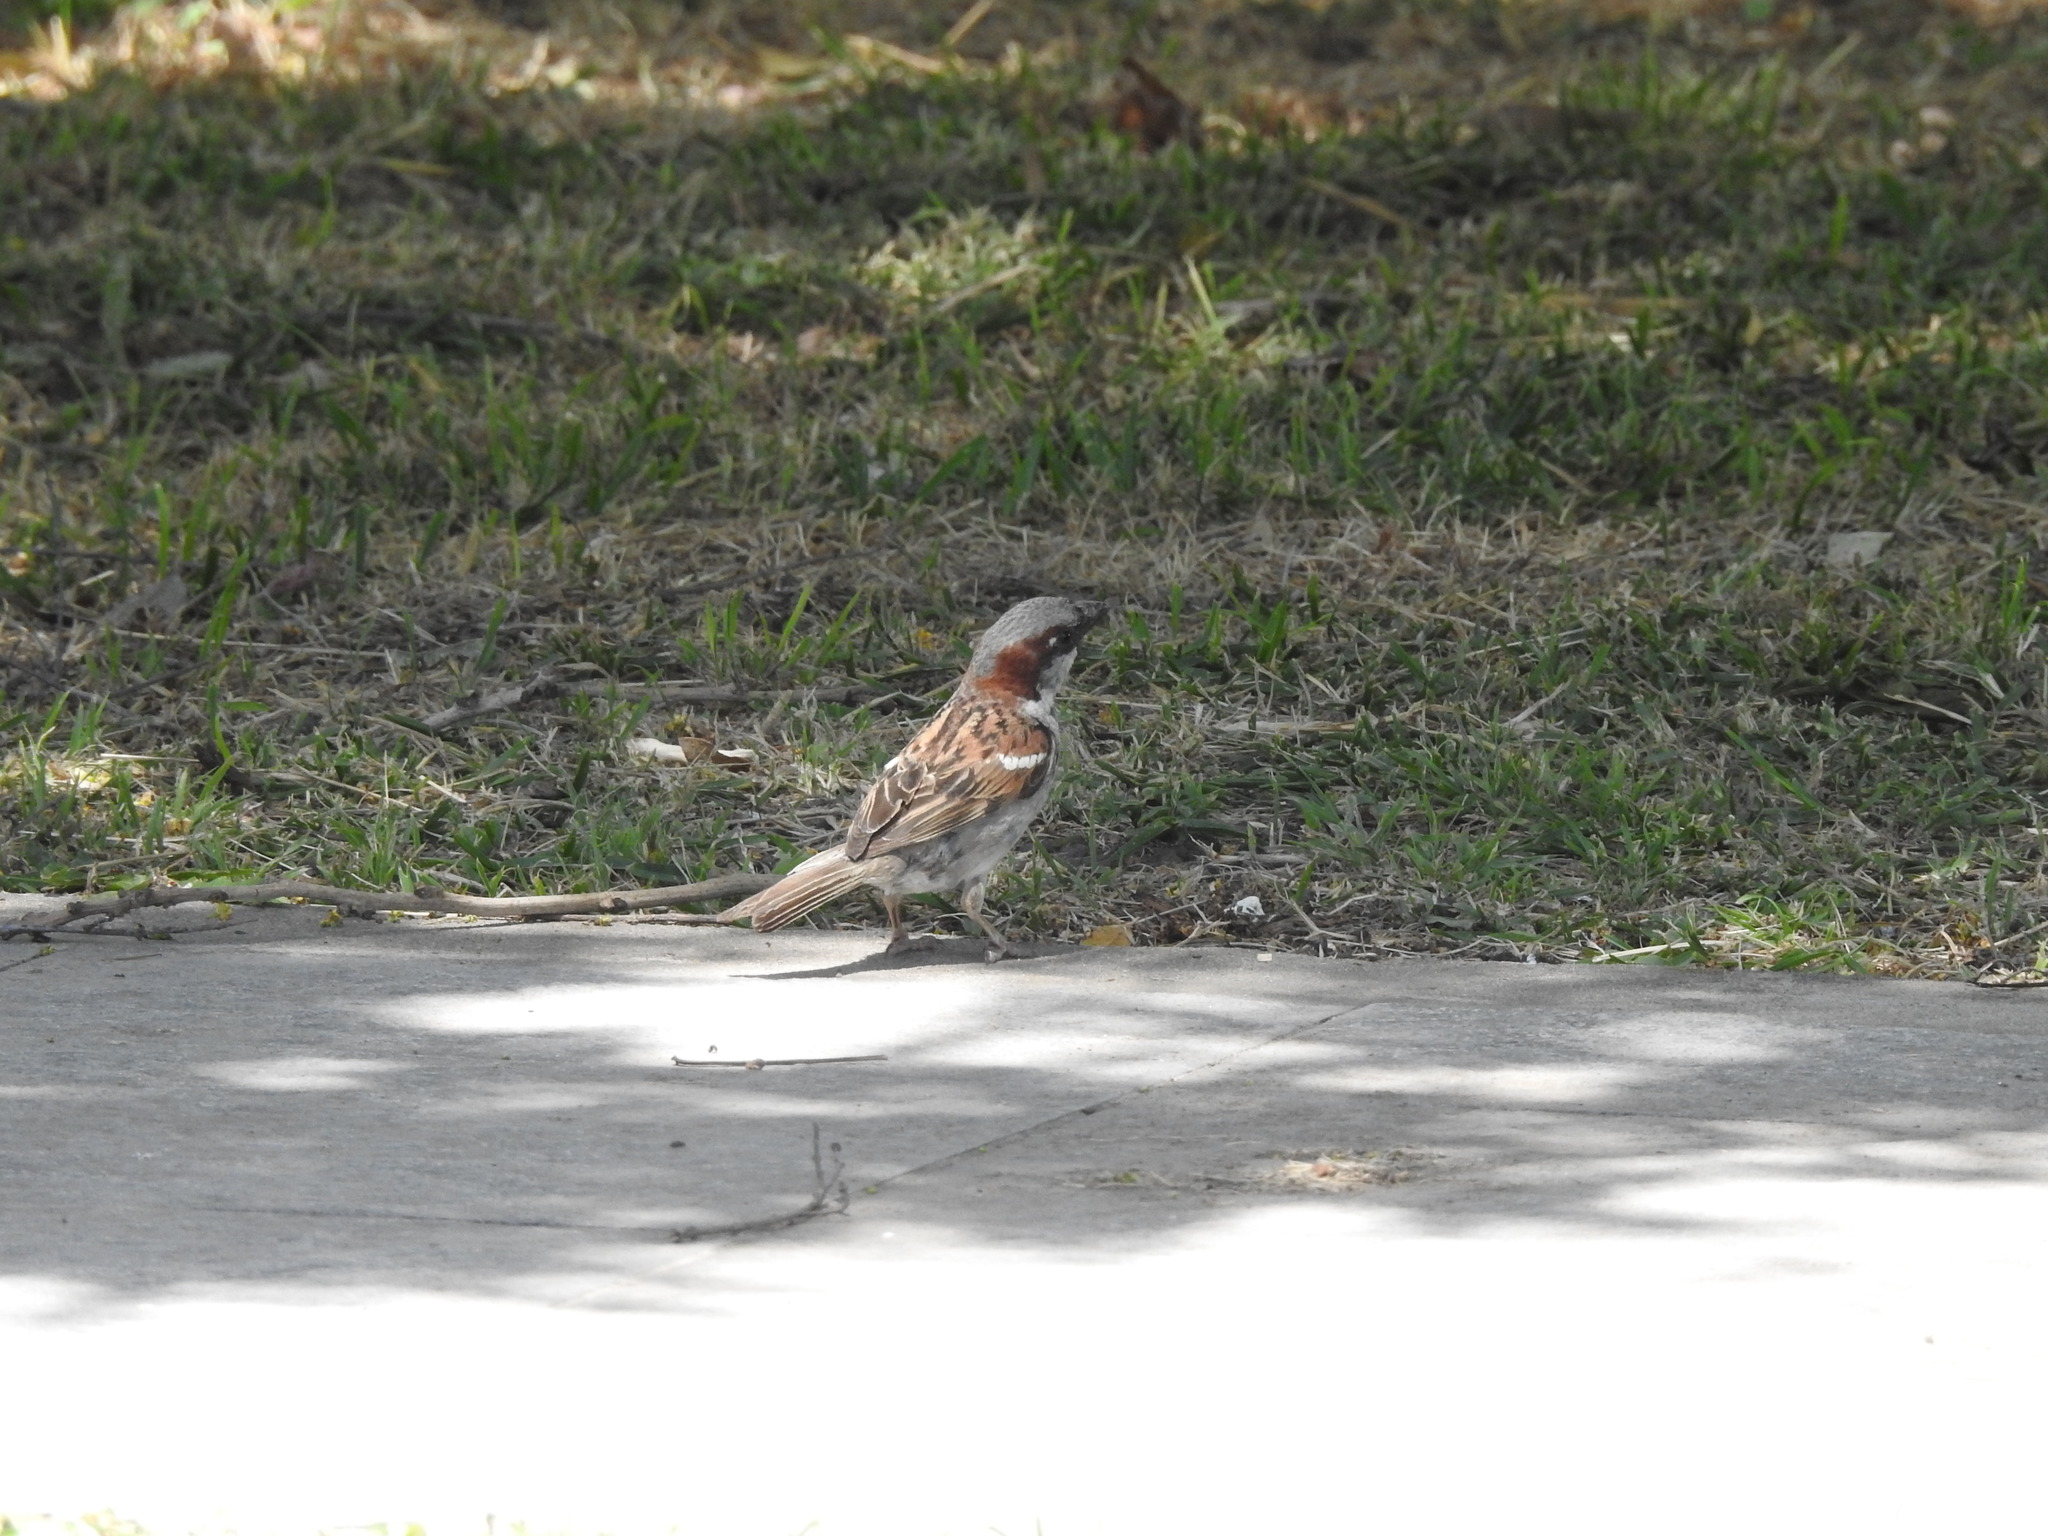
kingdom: Animalia
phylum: Chordata
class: Aves
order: Passeriformes
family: Passeridae
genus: Passer
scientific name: Passer domesticus
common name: House sparrow
